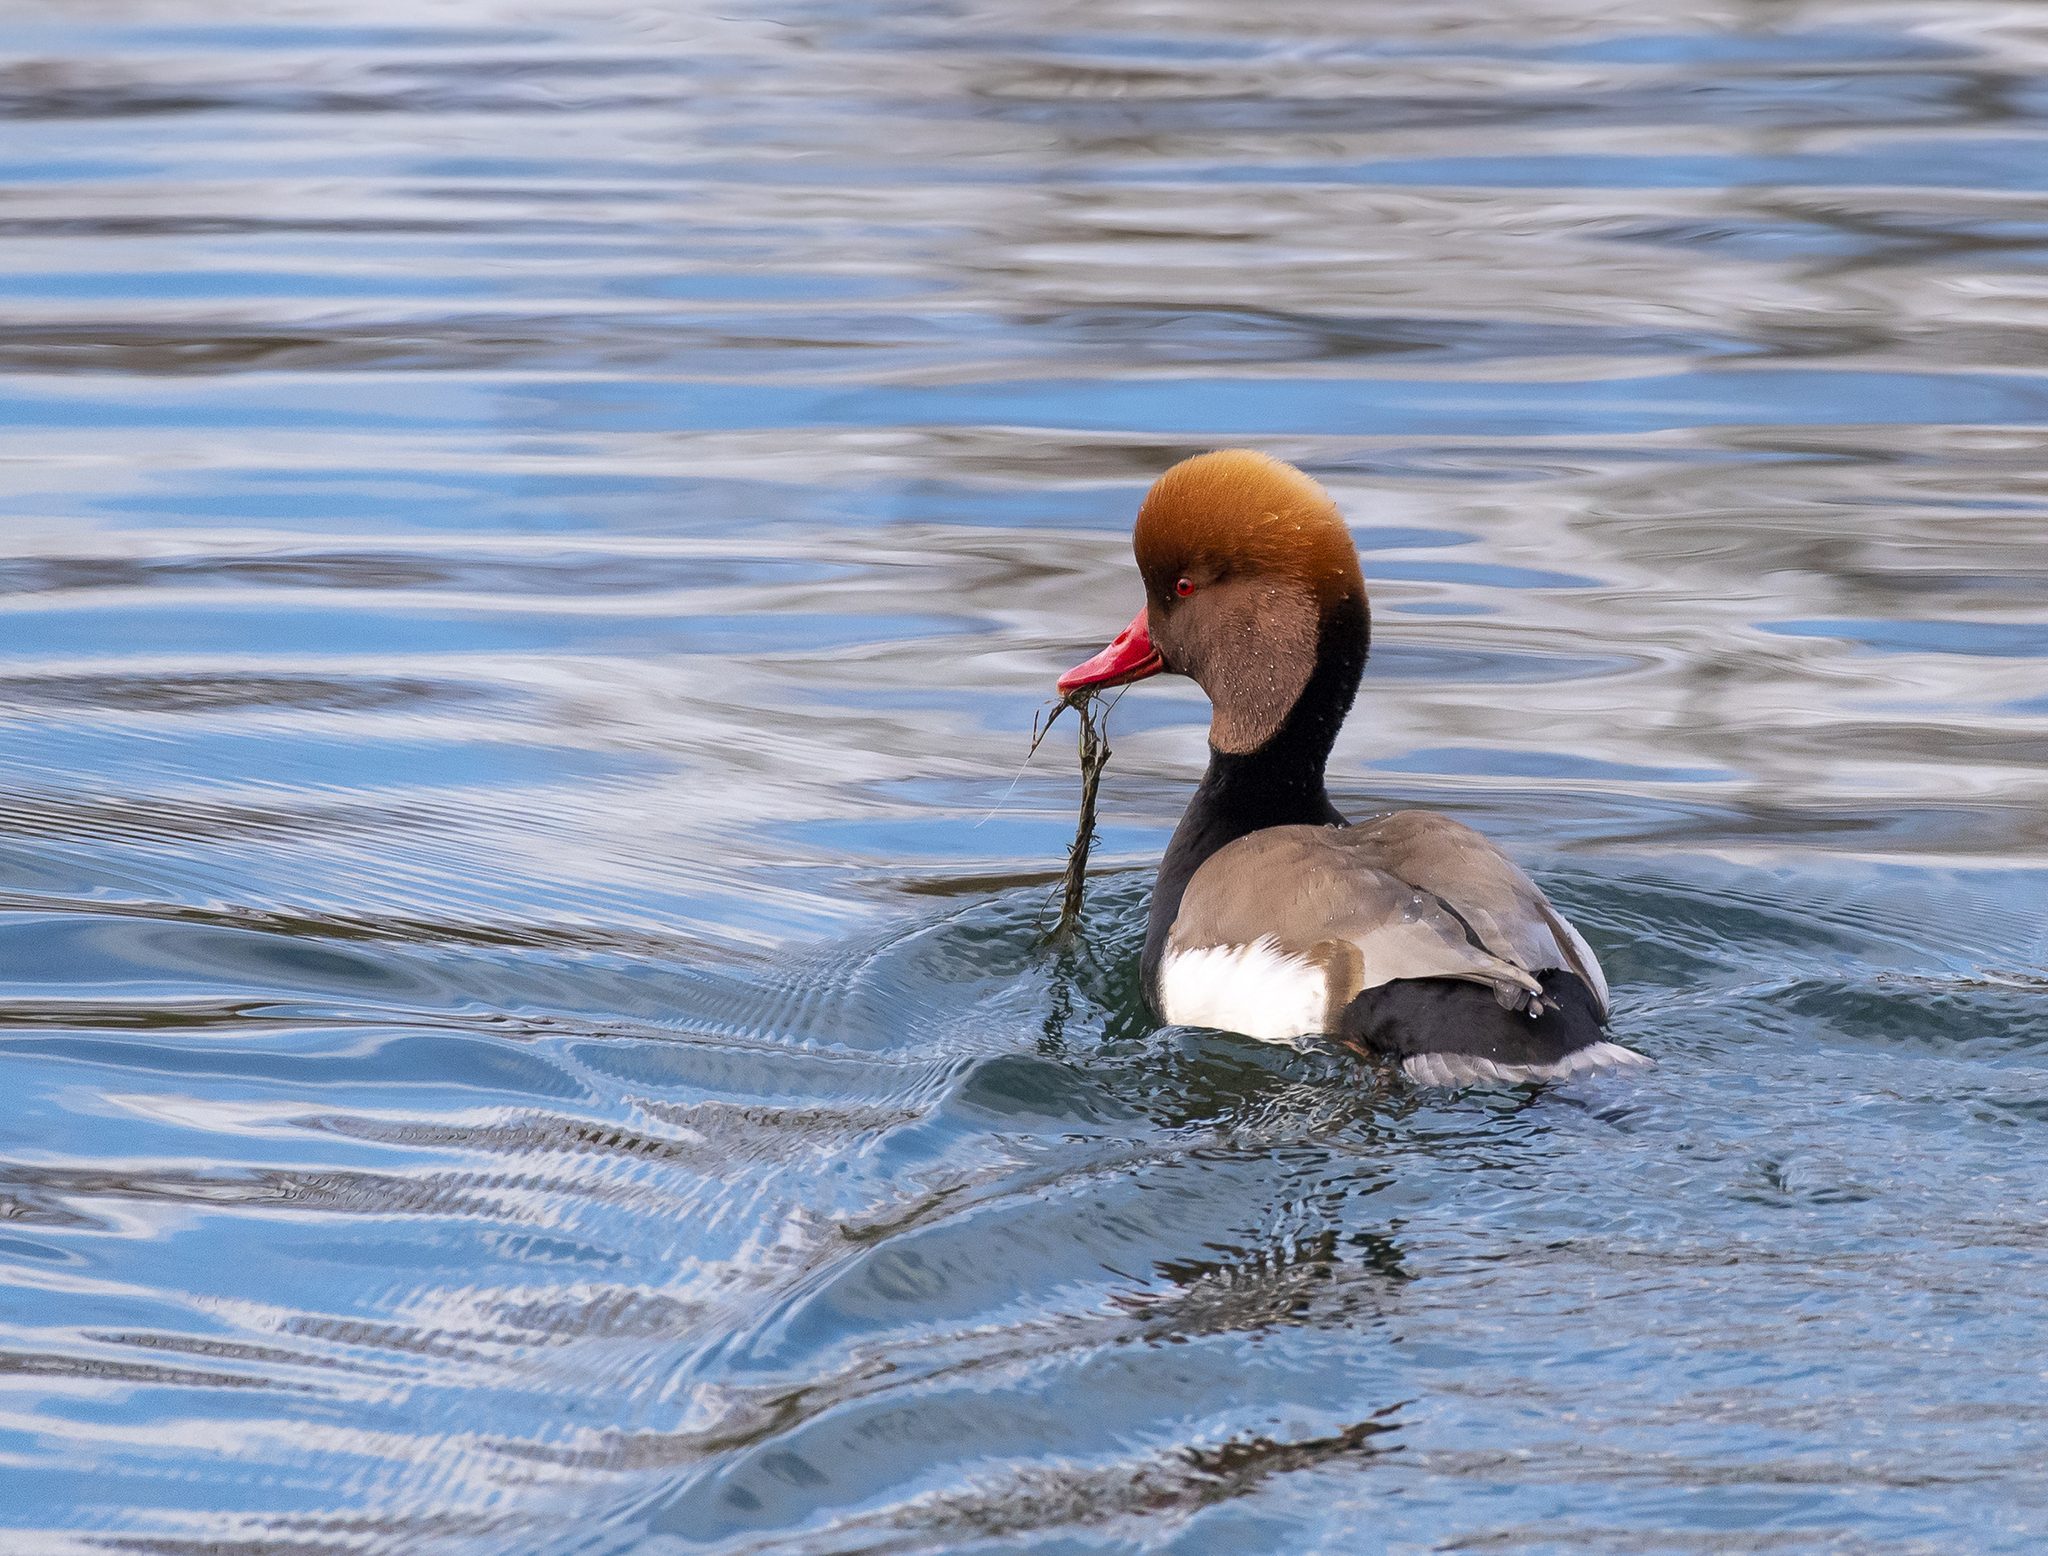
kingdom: Animalia
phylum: Chordata
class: Aves
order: Anseriformes
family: Anatidae
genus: Netta
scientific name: Netta rufina
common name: Red-crested pochard
